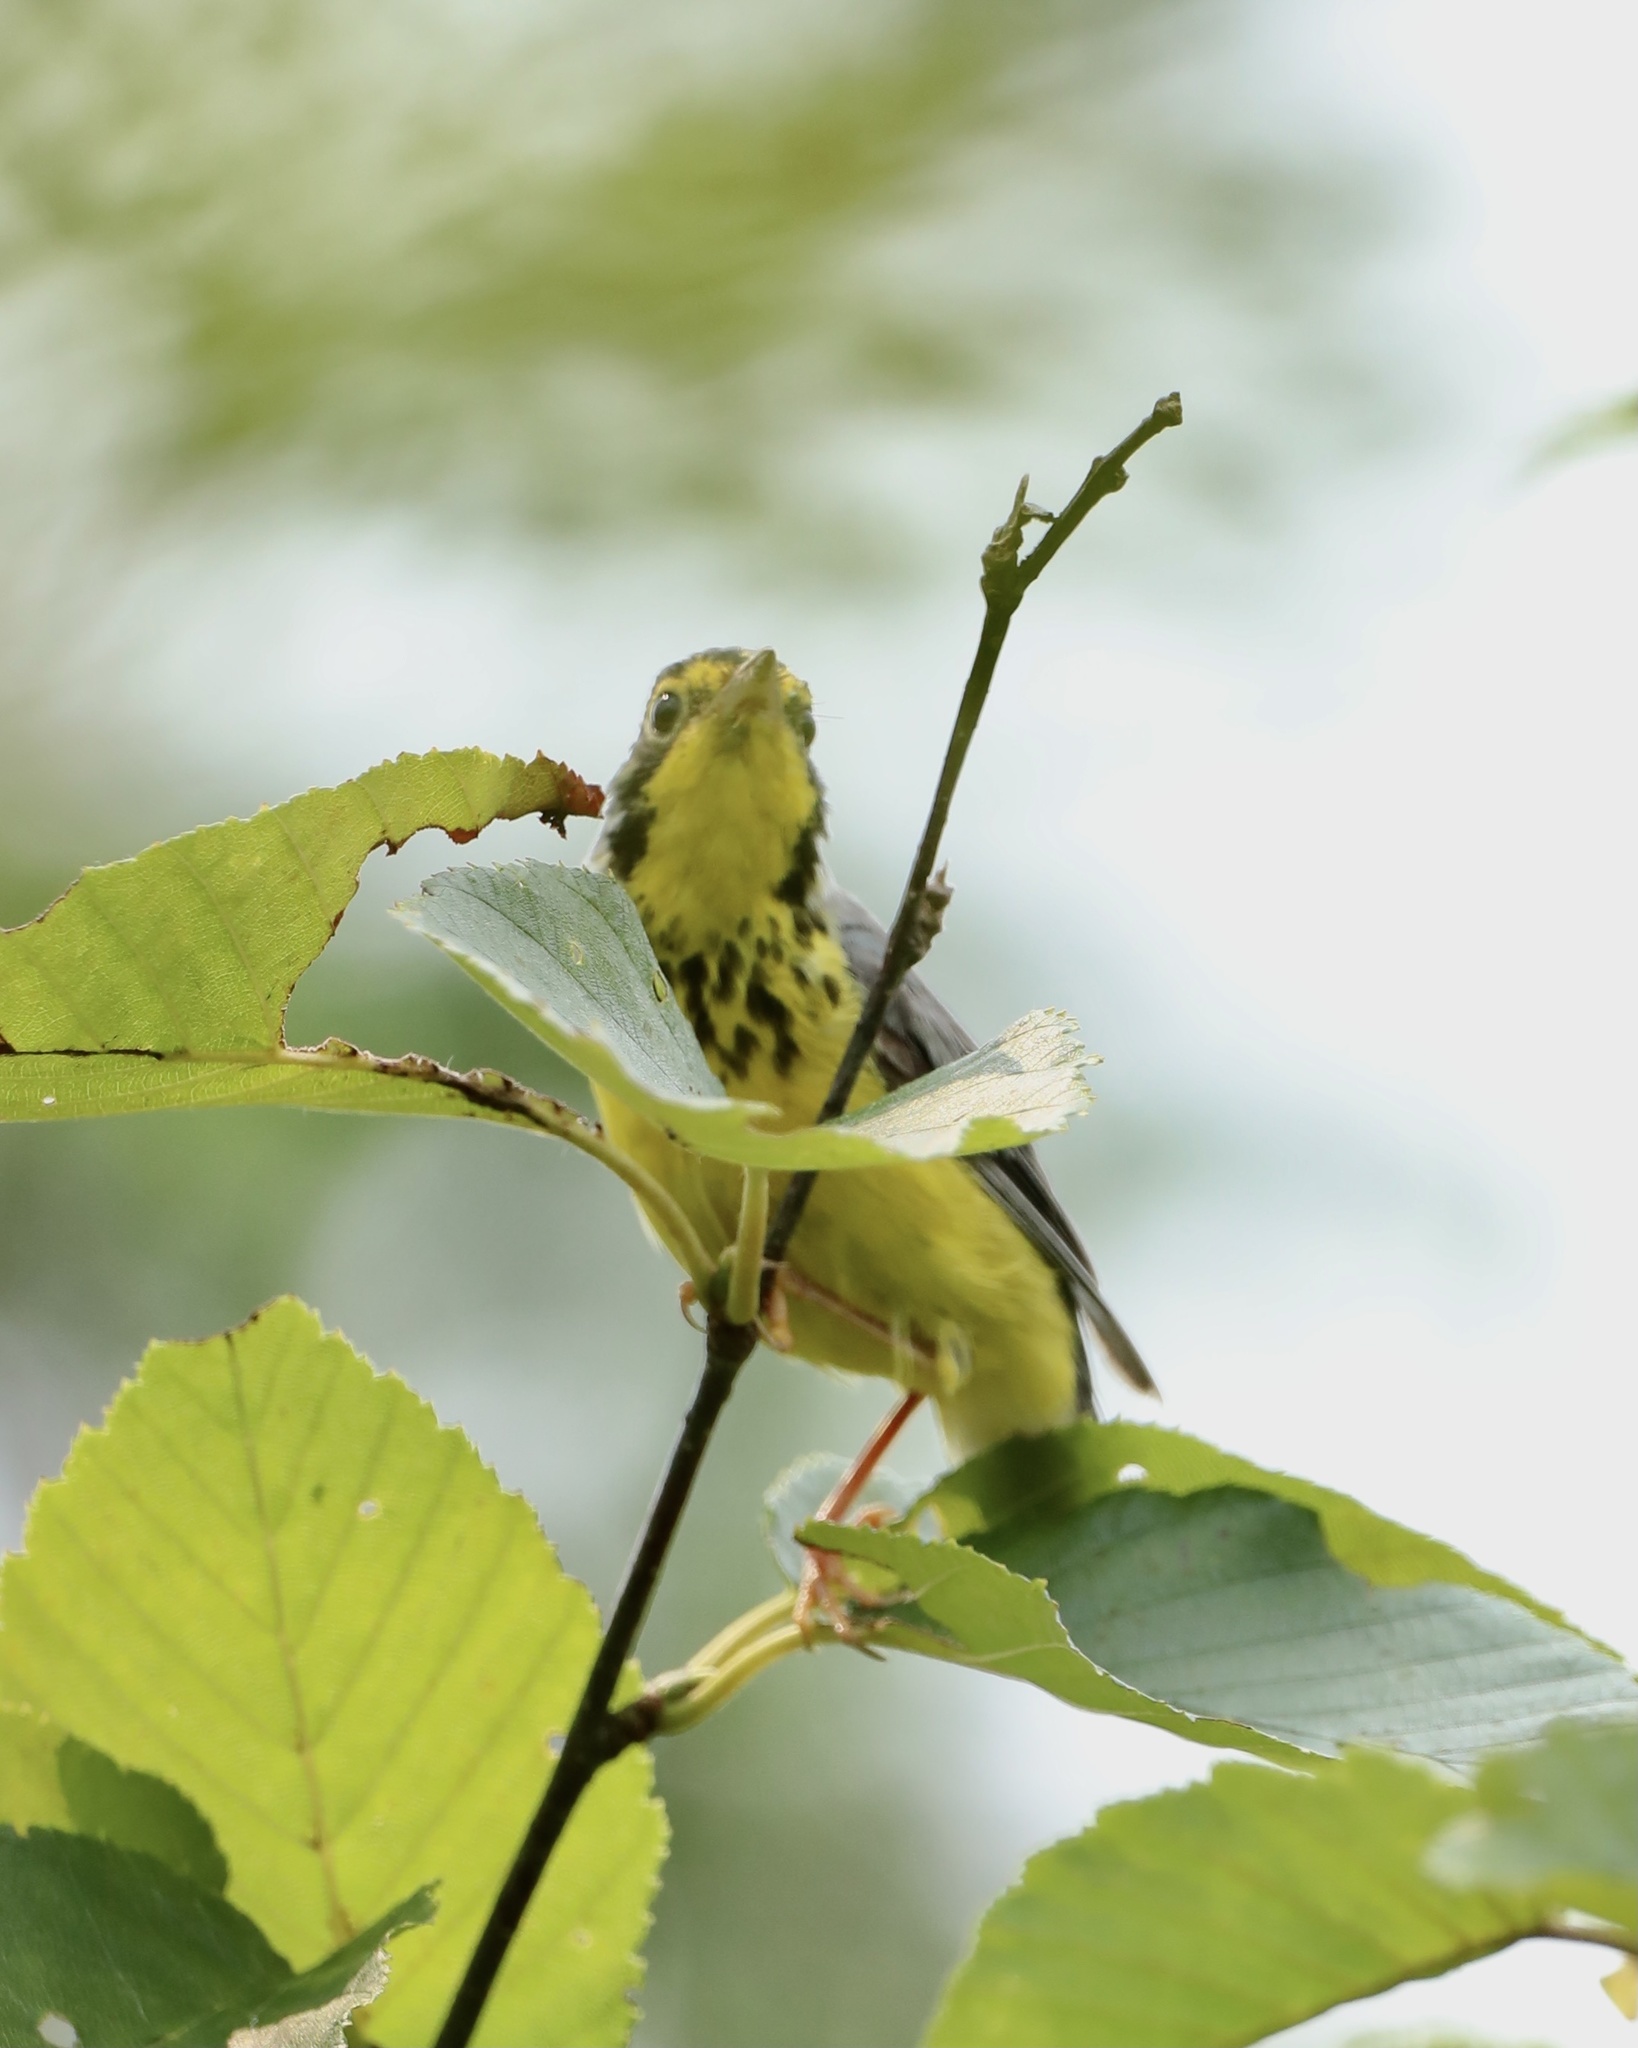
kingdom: Animalia
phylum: Chordata
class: Aves
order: Passeriformes
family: Parulidae
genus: Cardellina
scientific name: Cardellina canadensis
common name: Canada warbler
